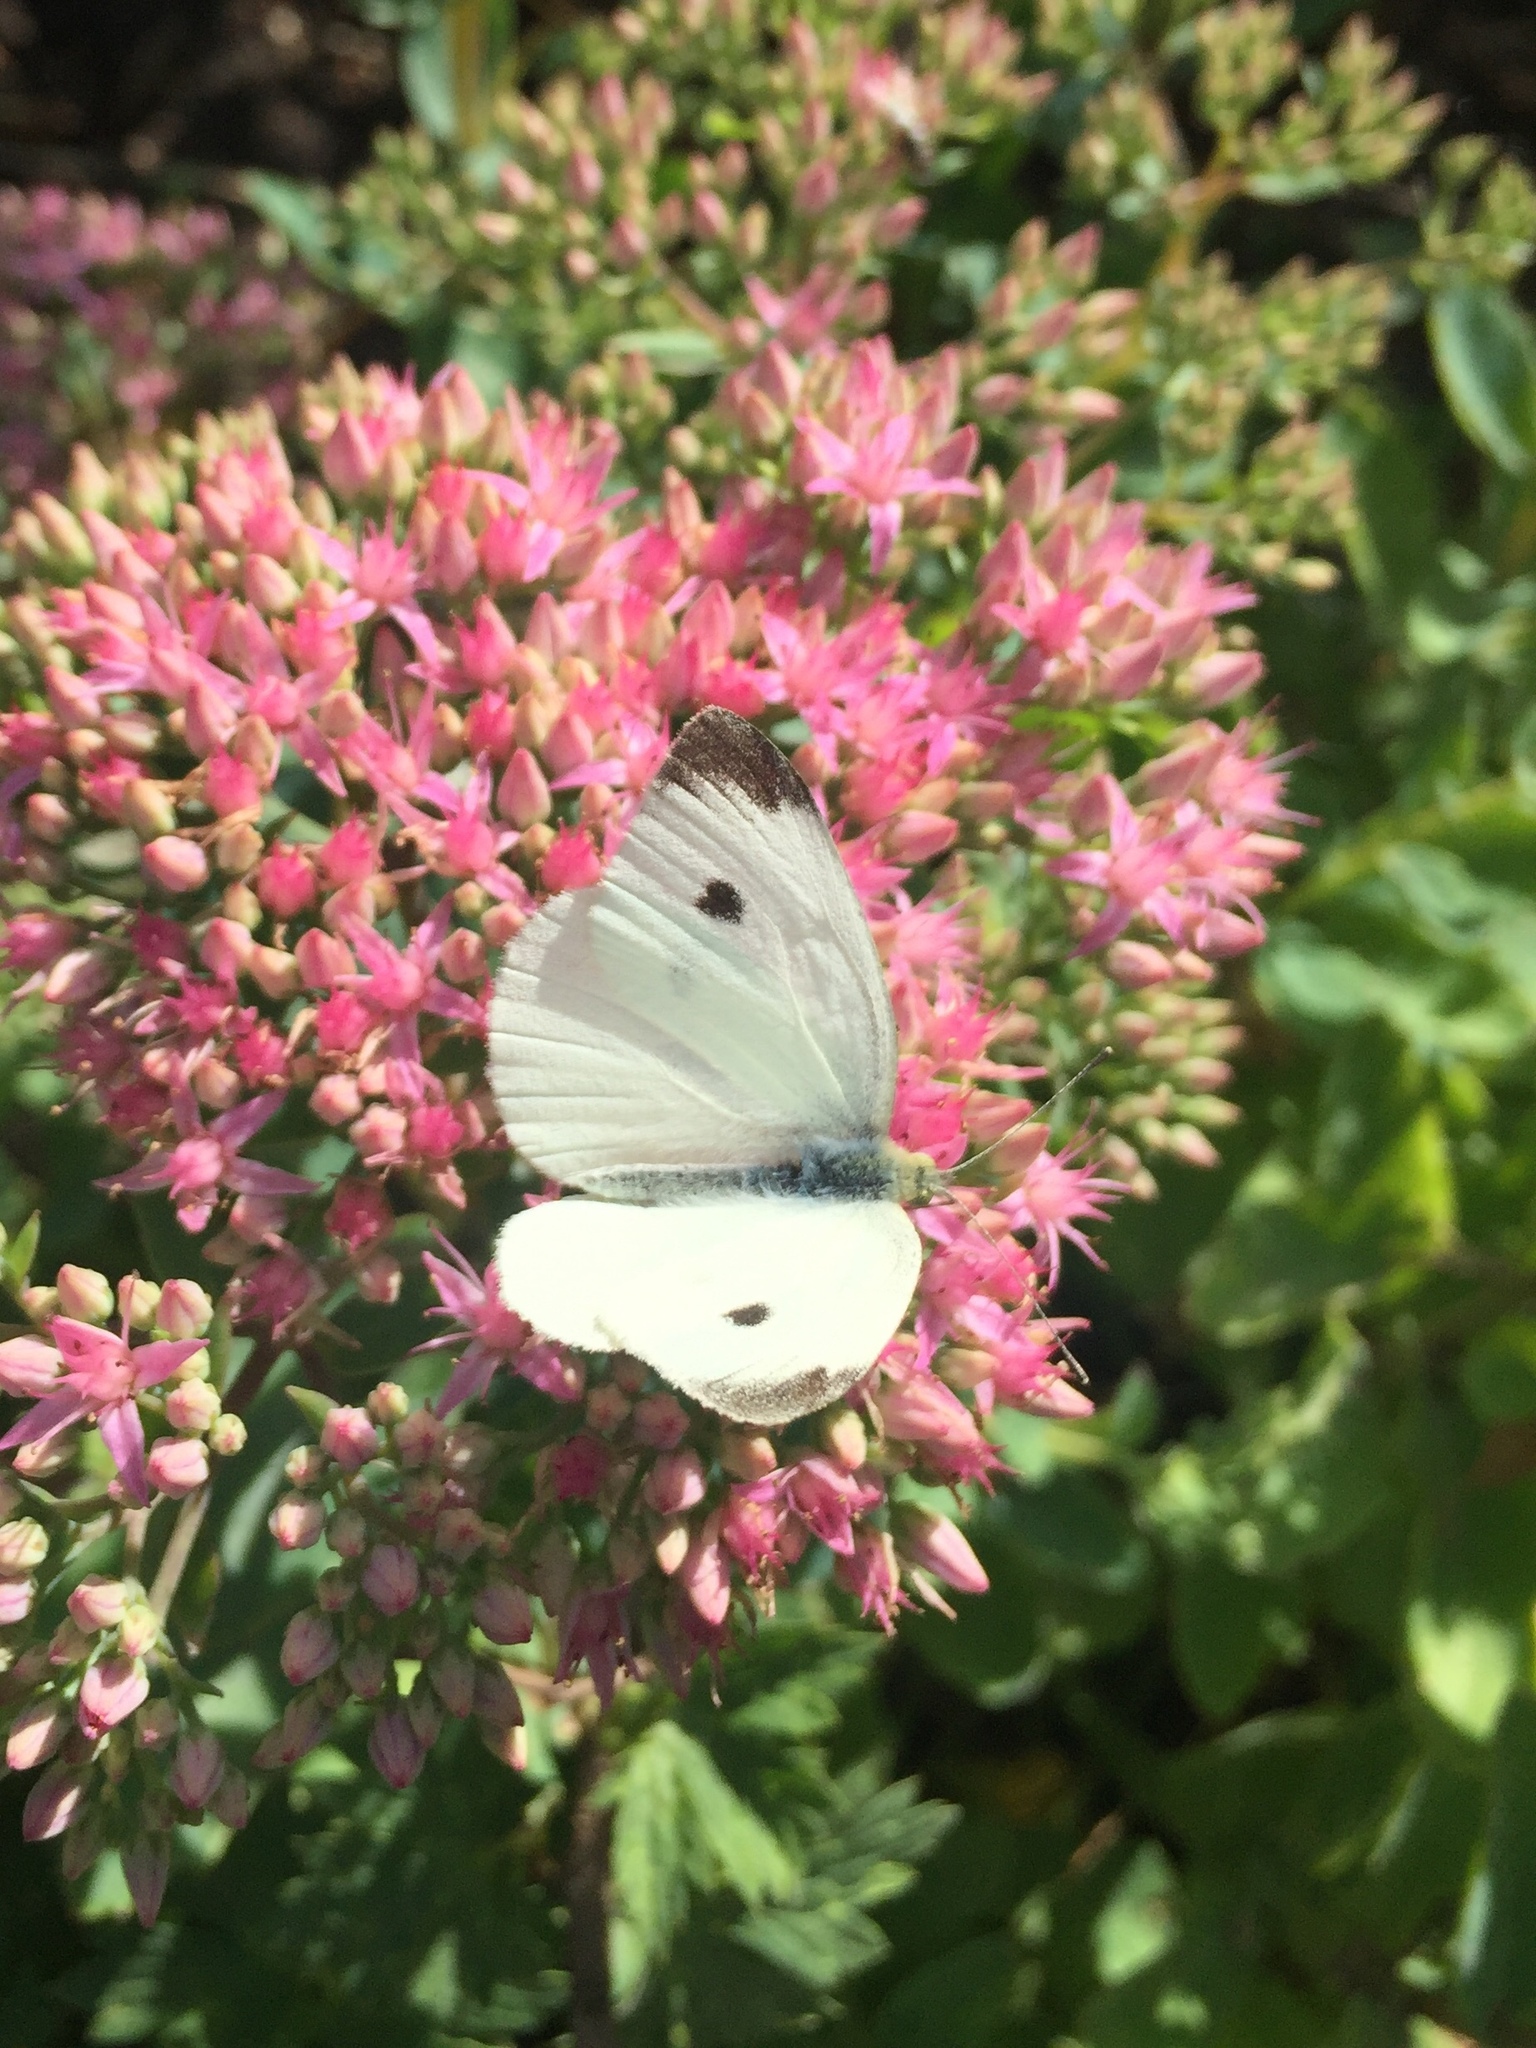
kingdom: Animalia
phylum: Arthropoda
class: Insecta
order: Lepidoptera
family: Pieridae
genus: Pieris
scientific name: Pieris rapae
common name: Small white
